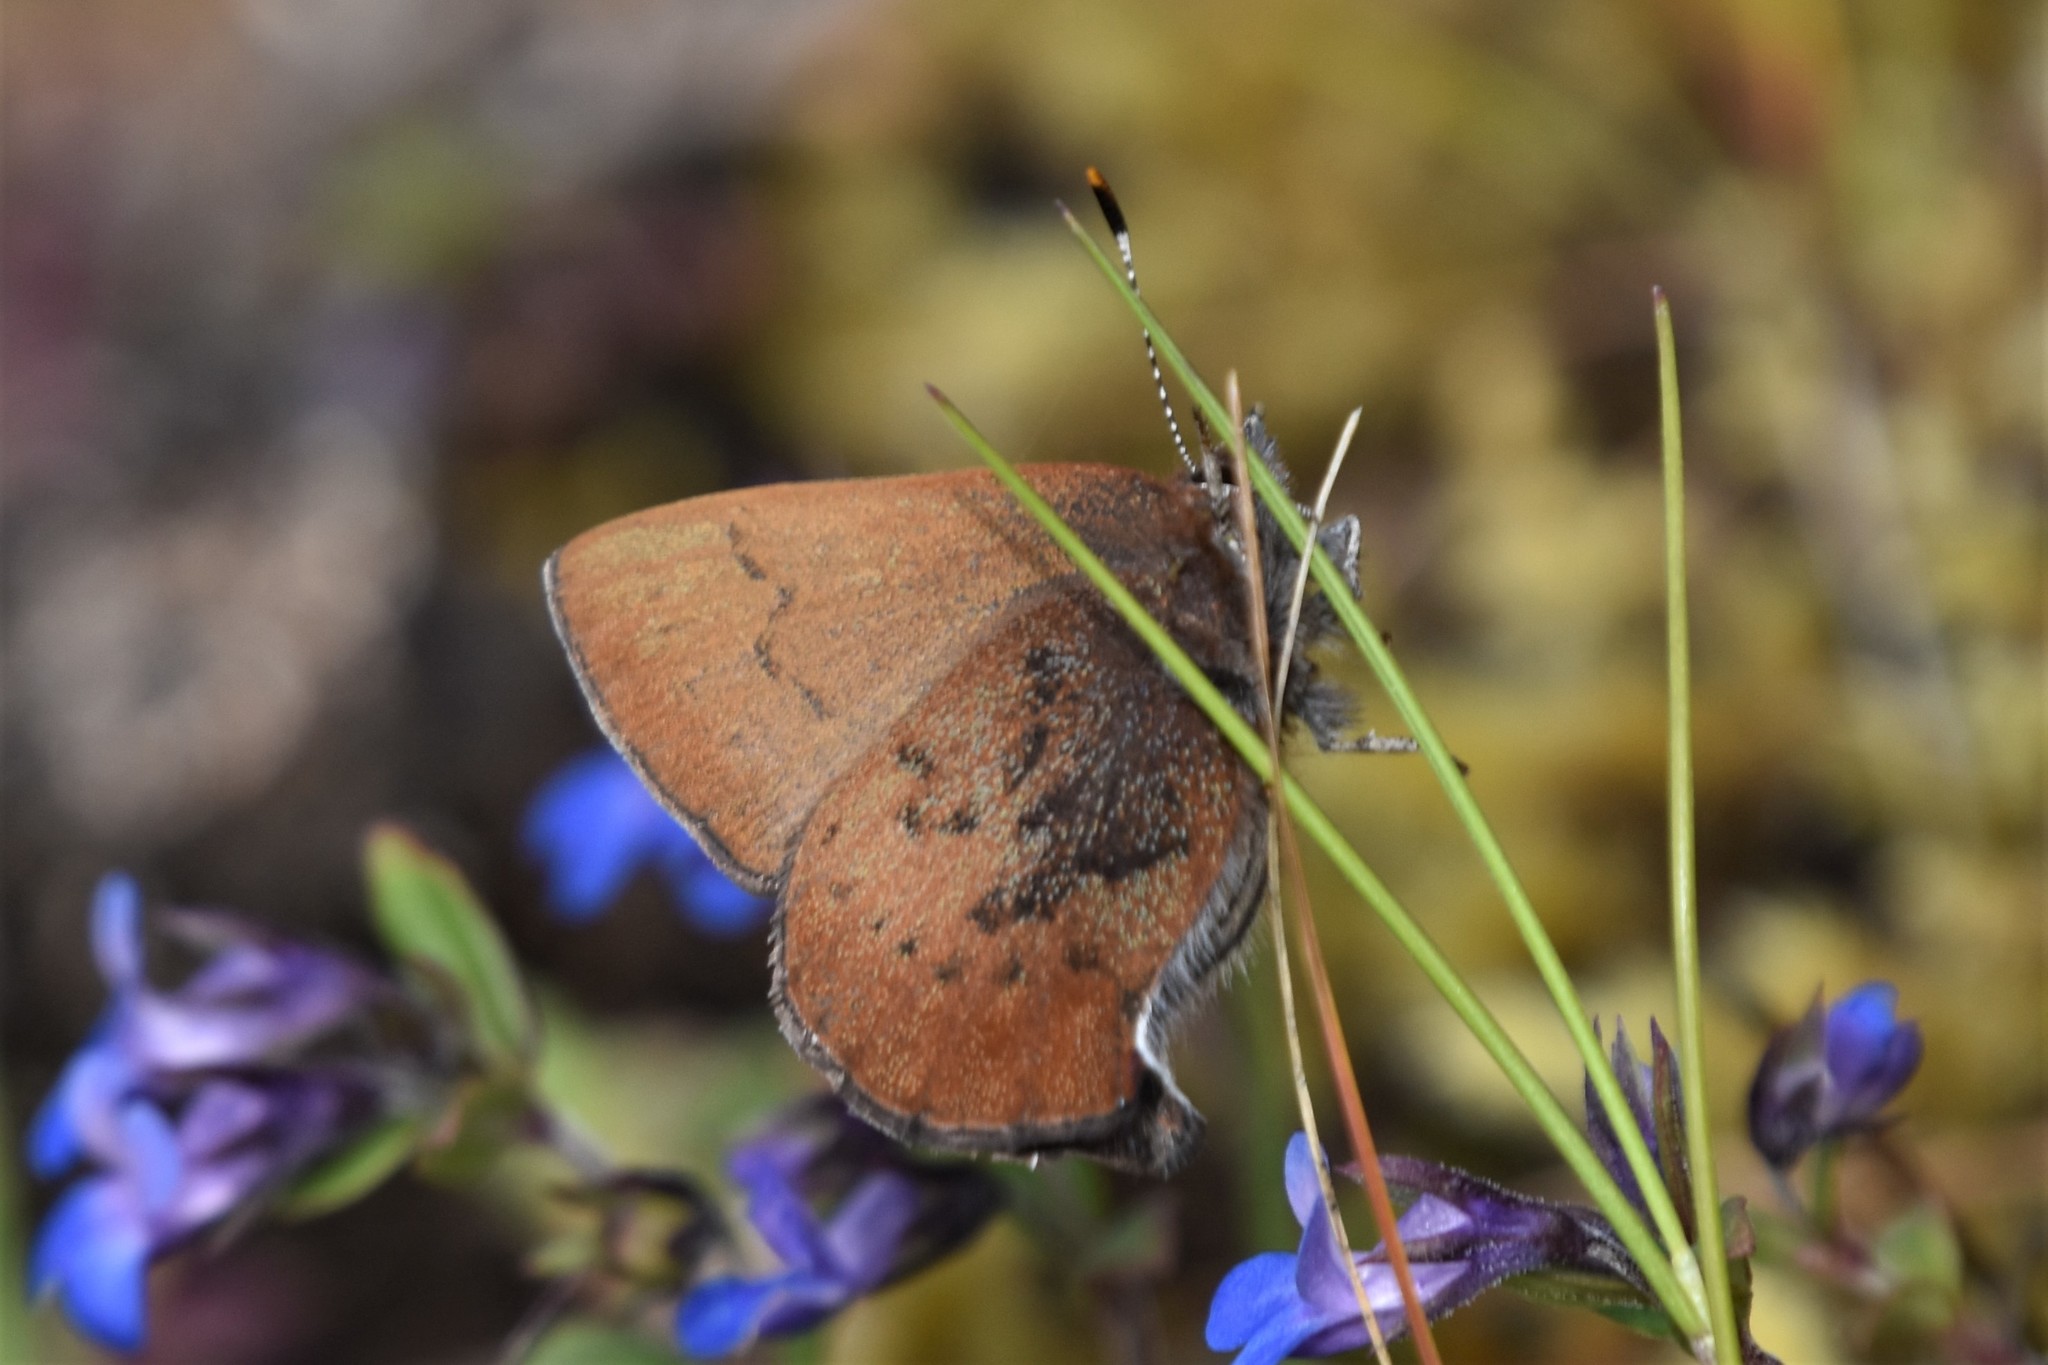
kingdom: Animalia
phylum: Arthropoda
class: Insecta
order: Lepidoptera
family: Lycaenidae
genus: Incisalia
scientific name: Incisalia irioides
